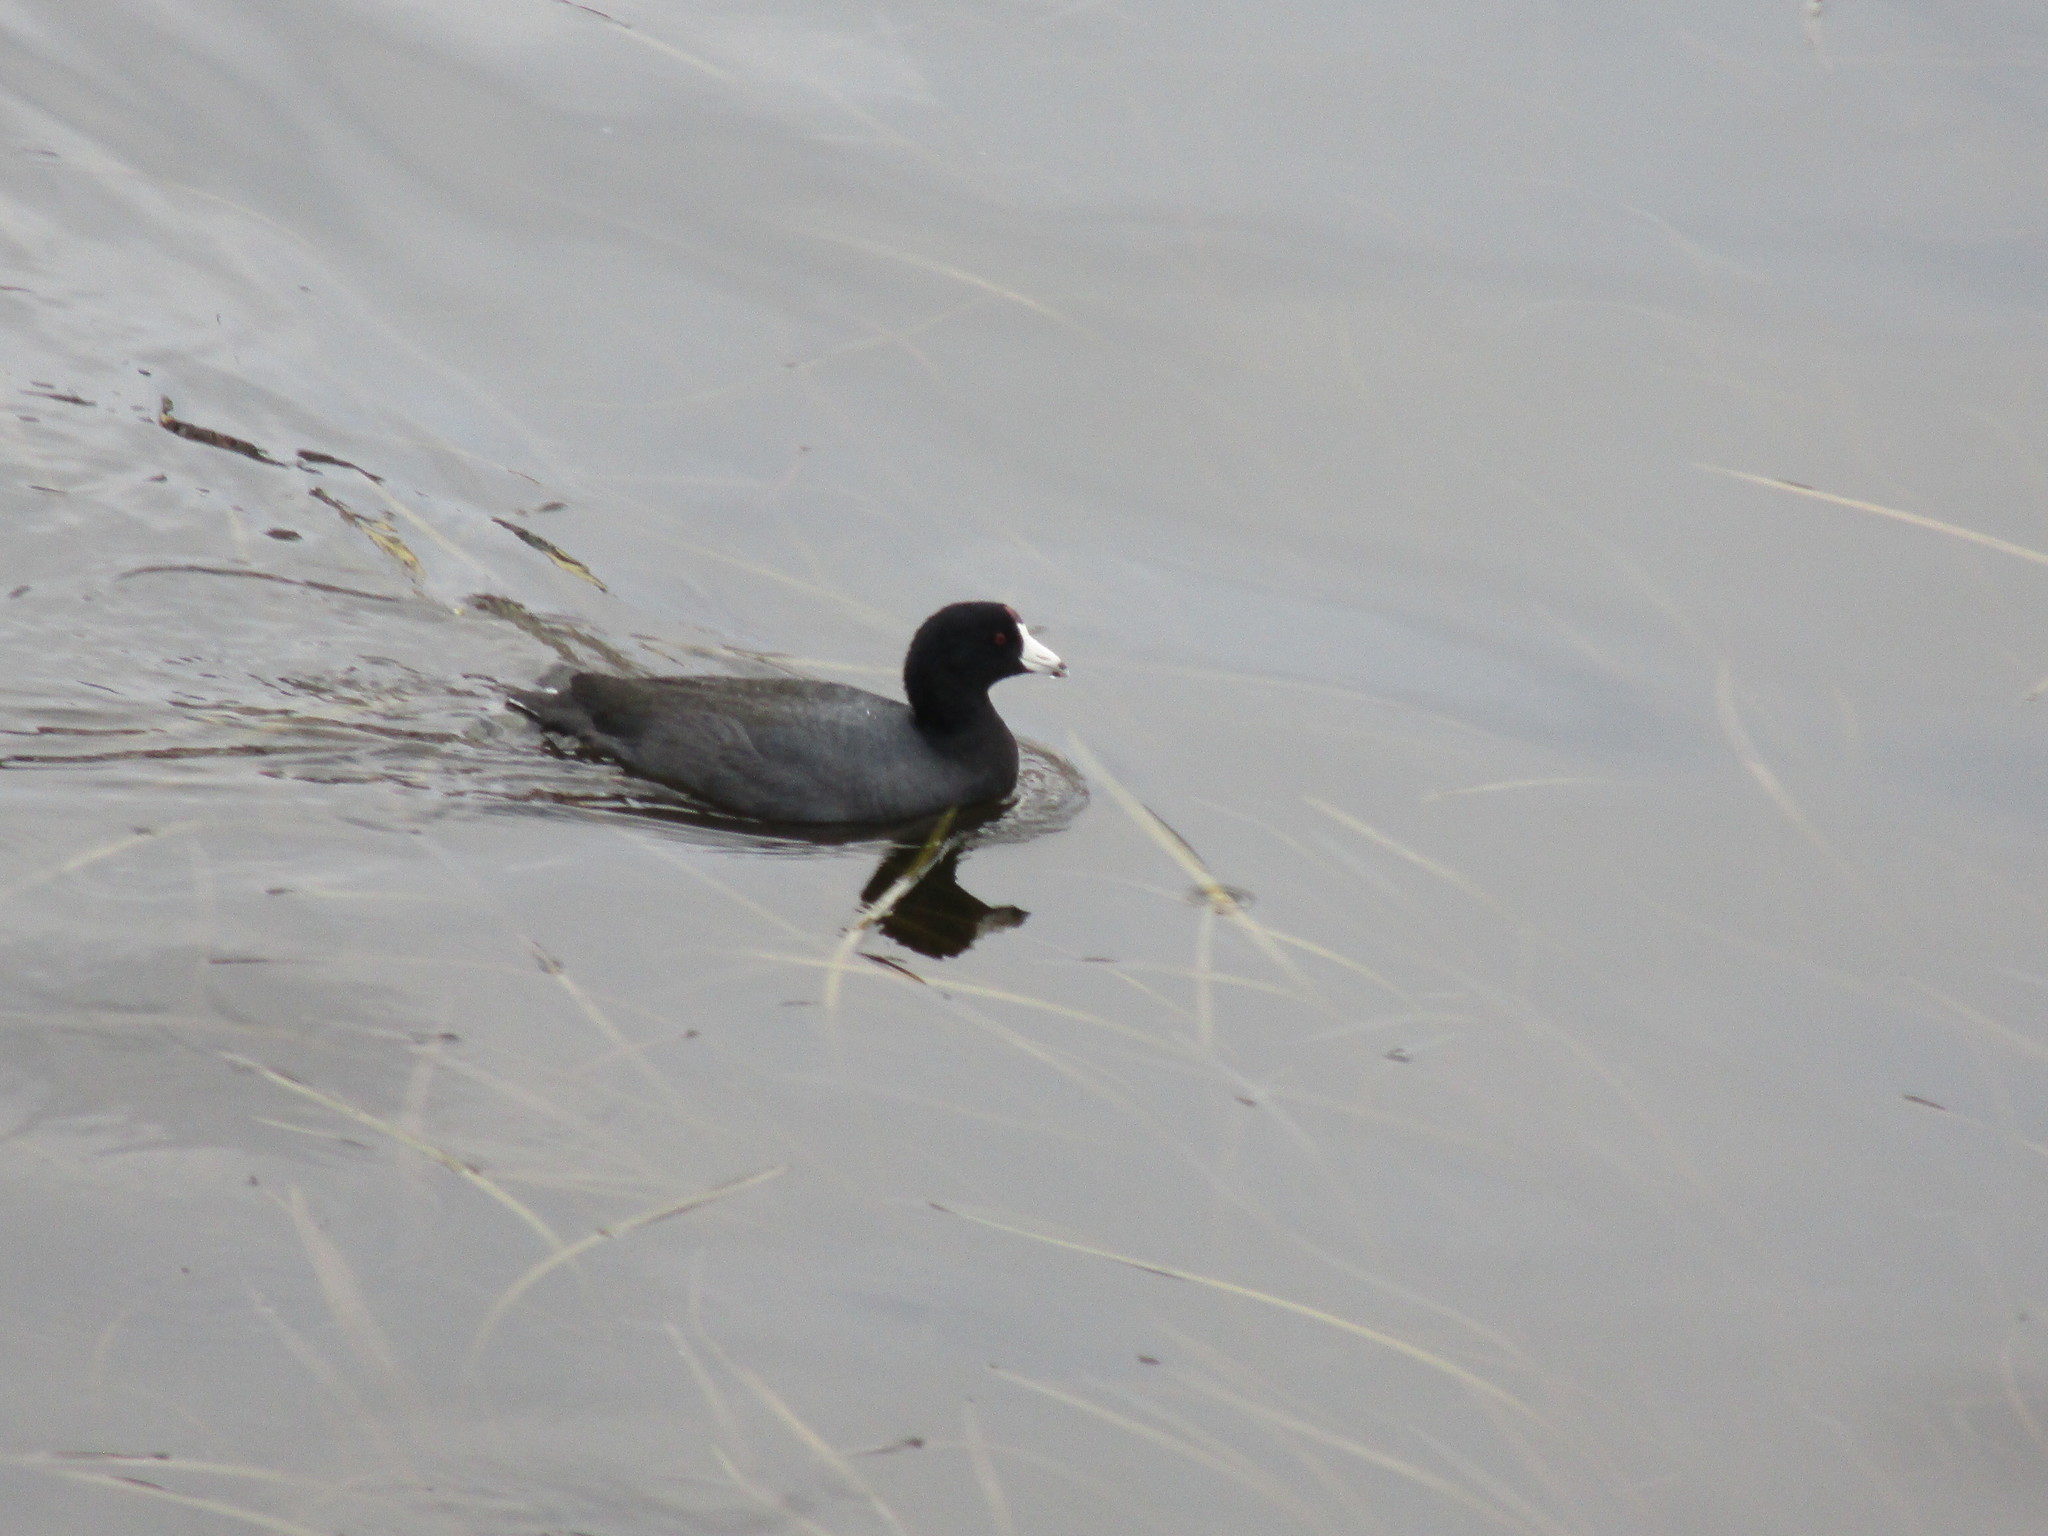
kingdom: Animalia
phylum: Chordata
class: Aves
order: Gruiformes
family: Rallidae
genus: Fulica
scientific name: Fulica americana
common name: American coot
